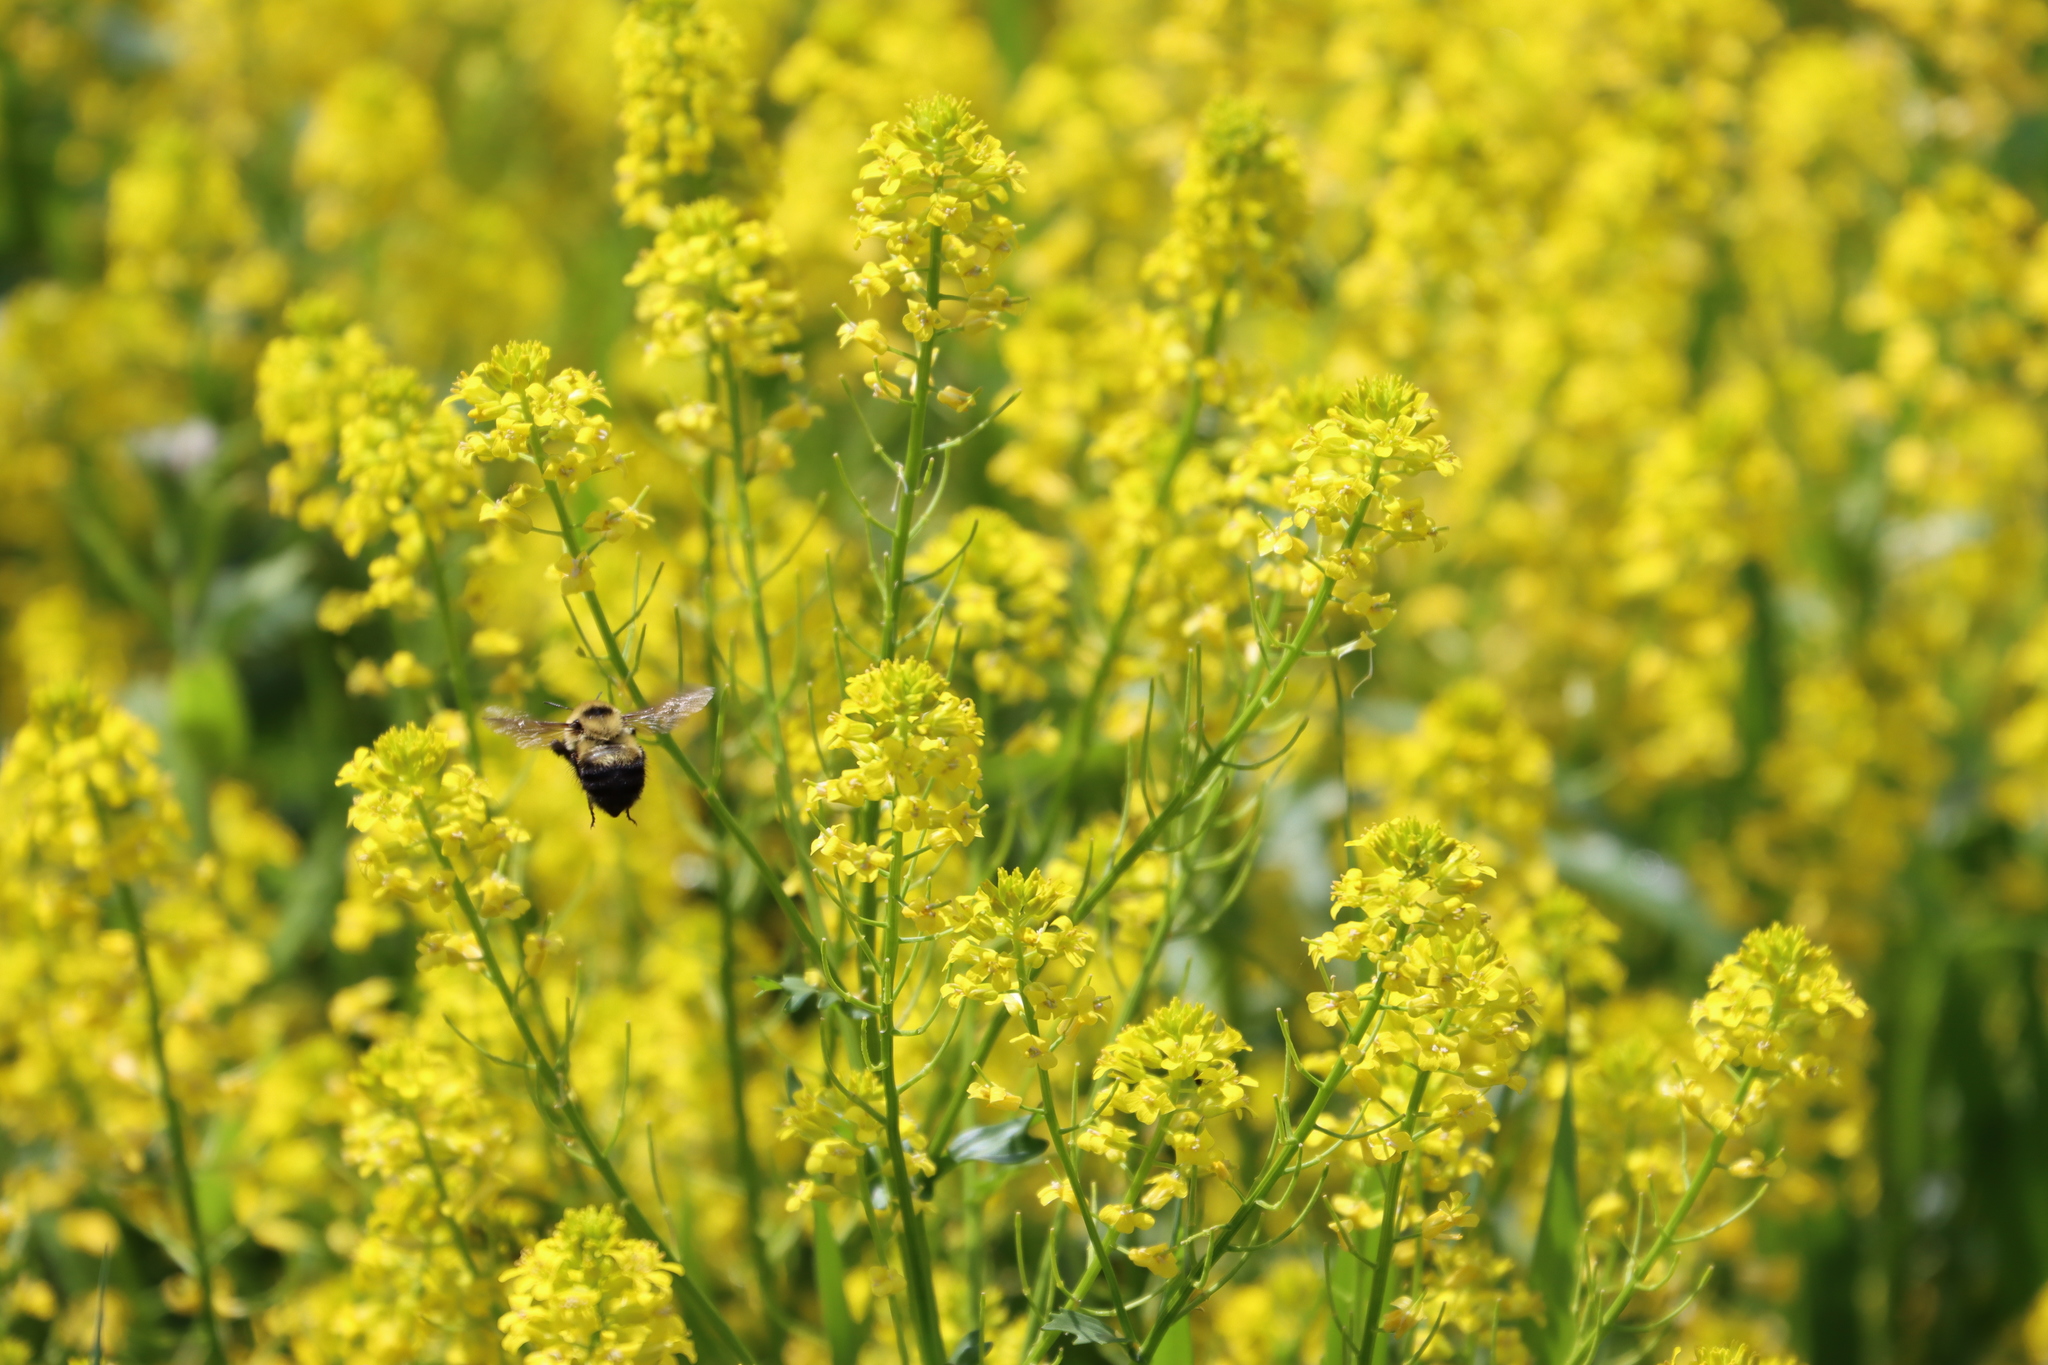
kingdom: Animalia
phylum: Arthropoda
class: Insecta
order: Hymenoptera
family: Apidae
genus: Bombus
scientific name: Bombus rufocinctus
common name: Red-belted bumble bee
